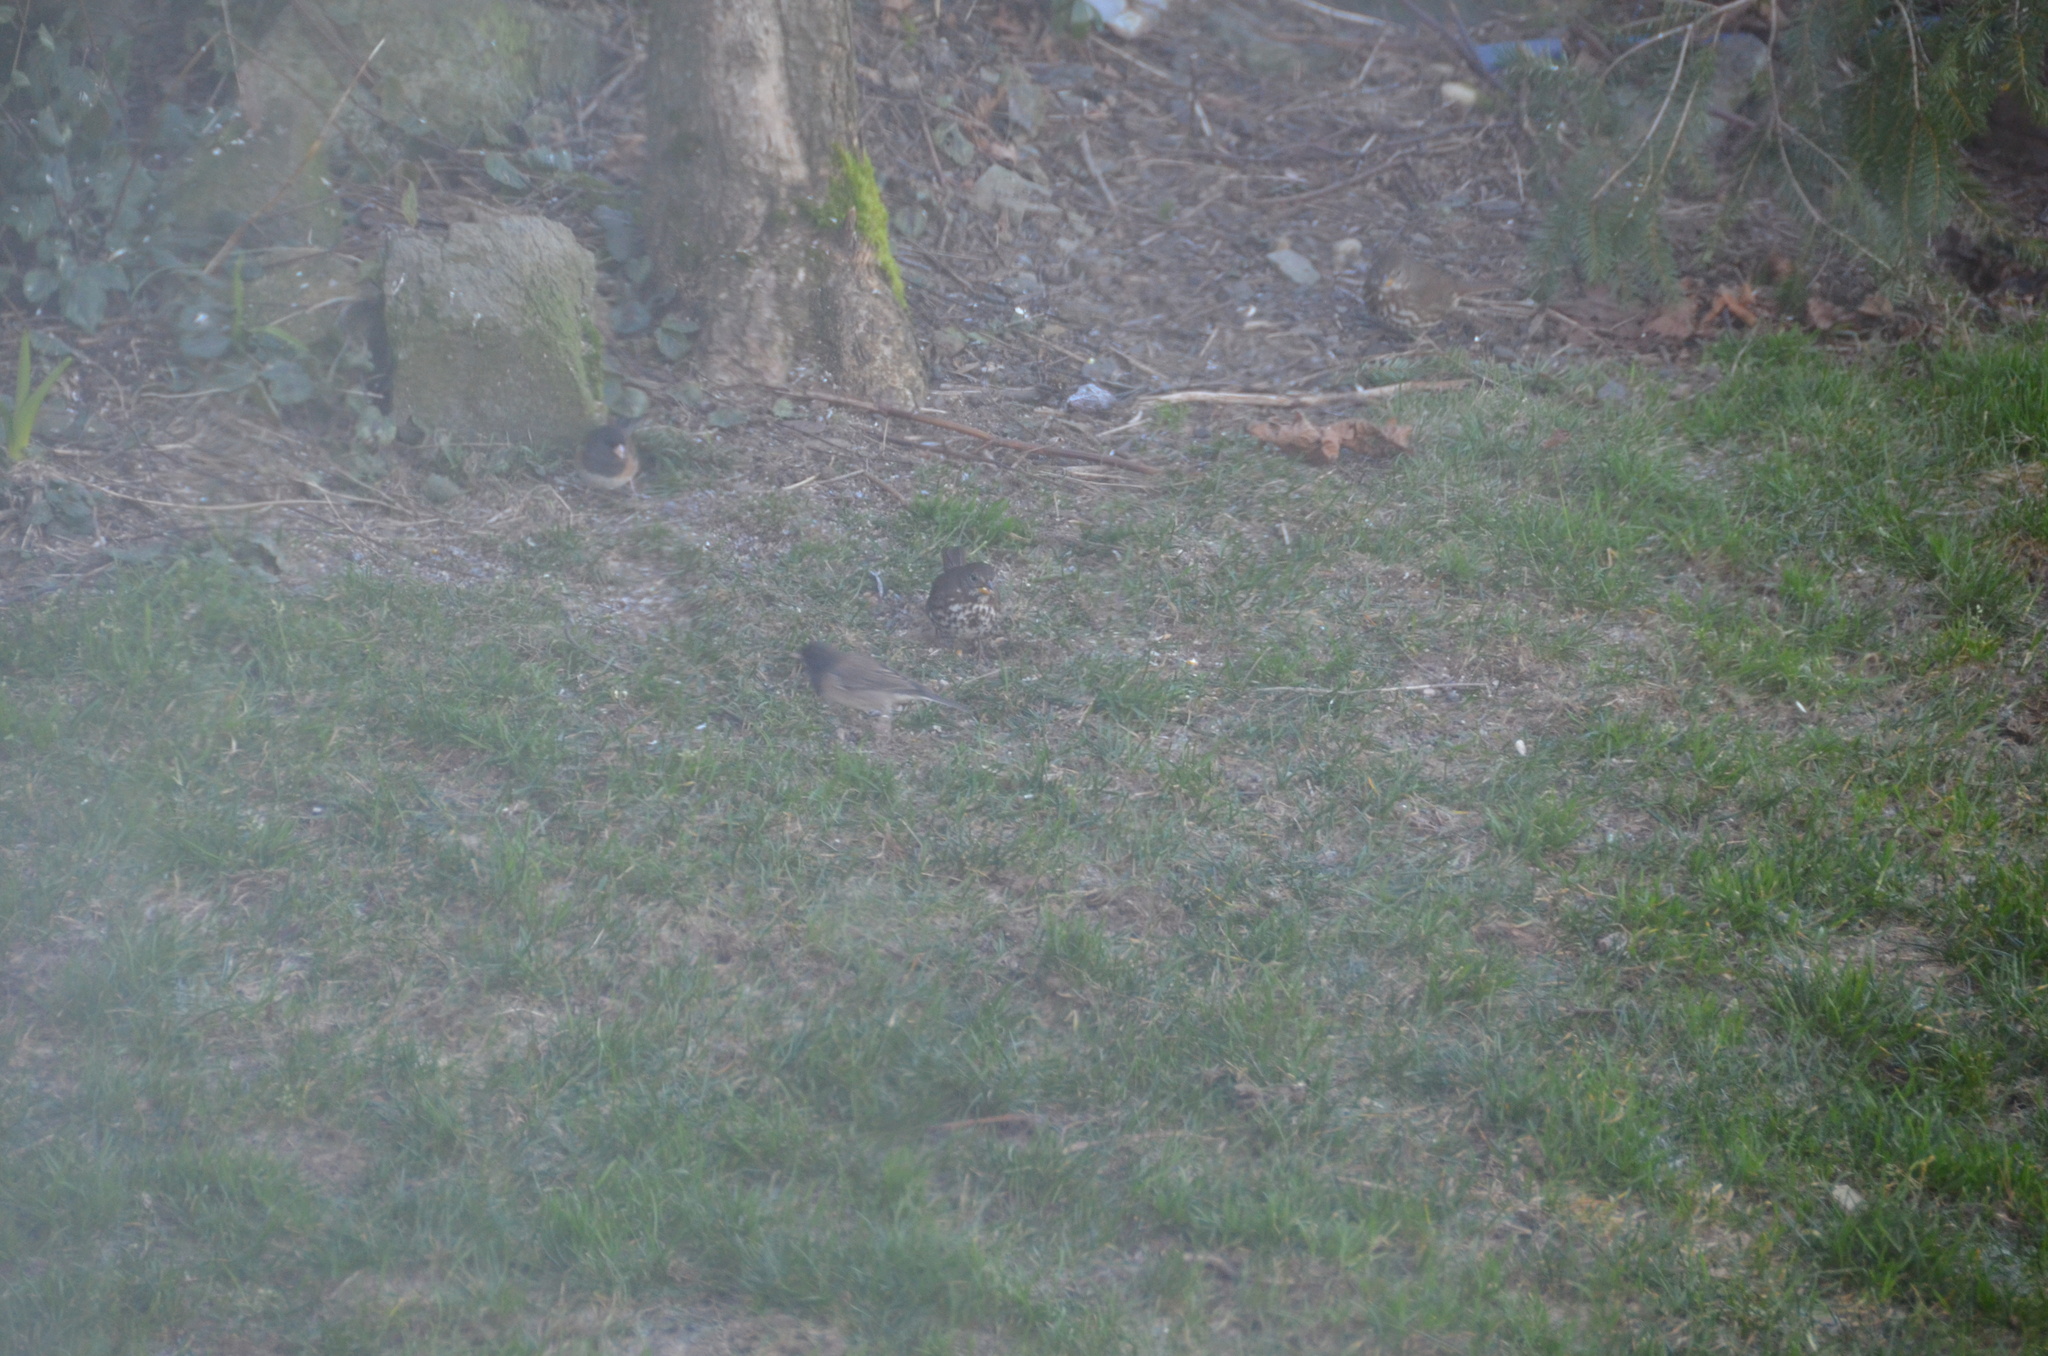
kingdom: Animalia
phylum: Chordata
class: Aves
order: Passeriformes
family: Passerellidae
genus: Passerella
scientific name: Passerella iliaca
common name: Fox sparrow
